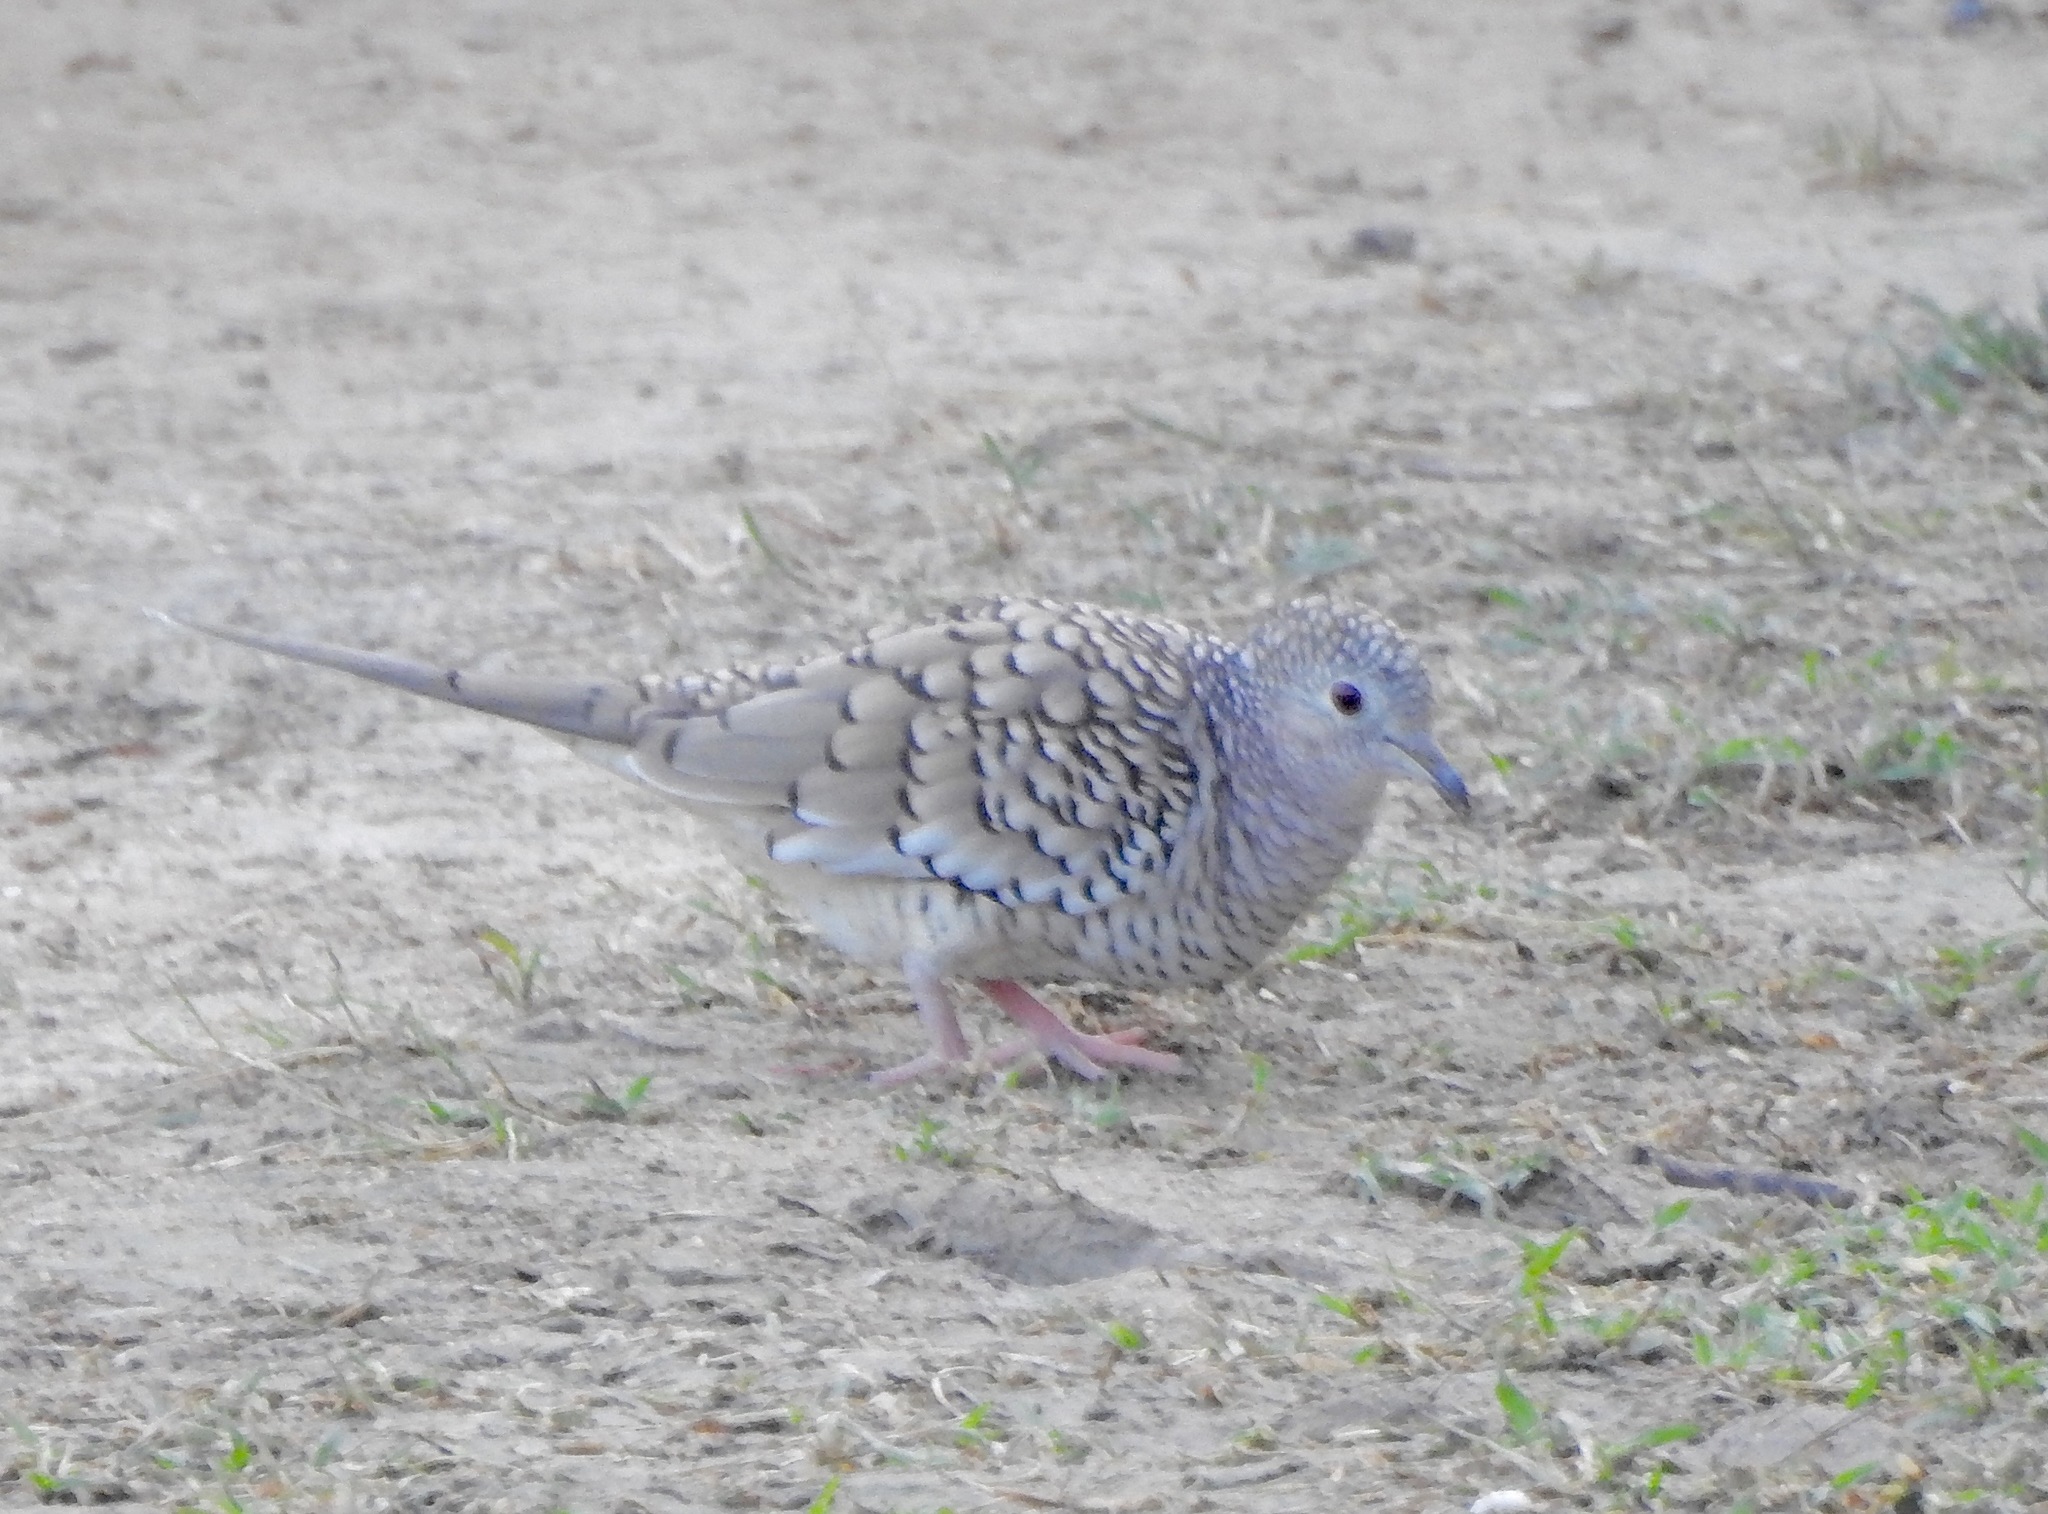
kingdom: Animalia
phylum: Chordata
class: Aves
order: Columbiformes
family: Columbidae
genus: Columbina
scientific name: Columbina squammata
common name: Scaled dove
